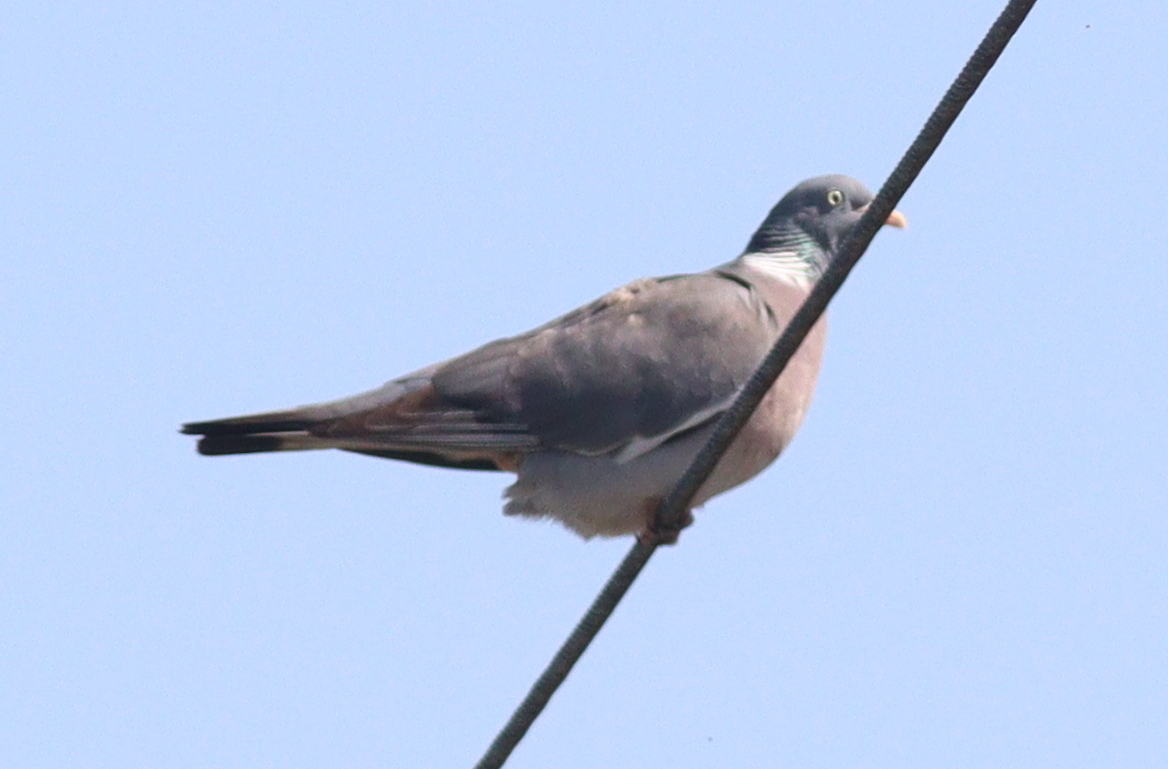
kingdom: Animalia
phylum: Chordata
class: Aves
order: Columbiformes
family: Columbidae
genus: Columba
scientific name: Columba palumbus
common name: Common wood pigeon
